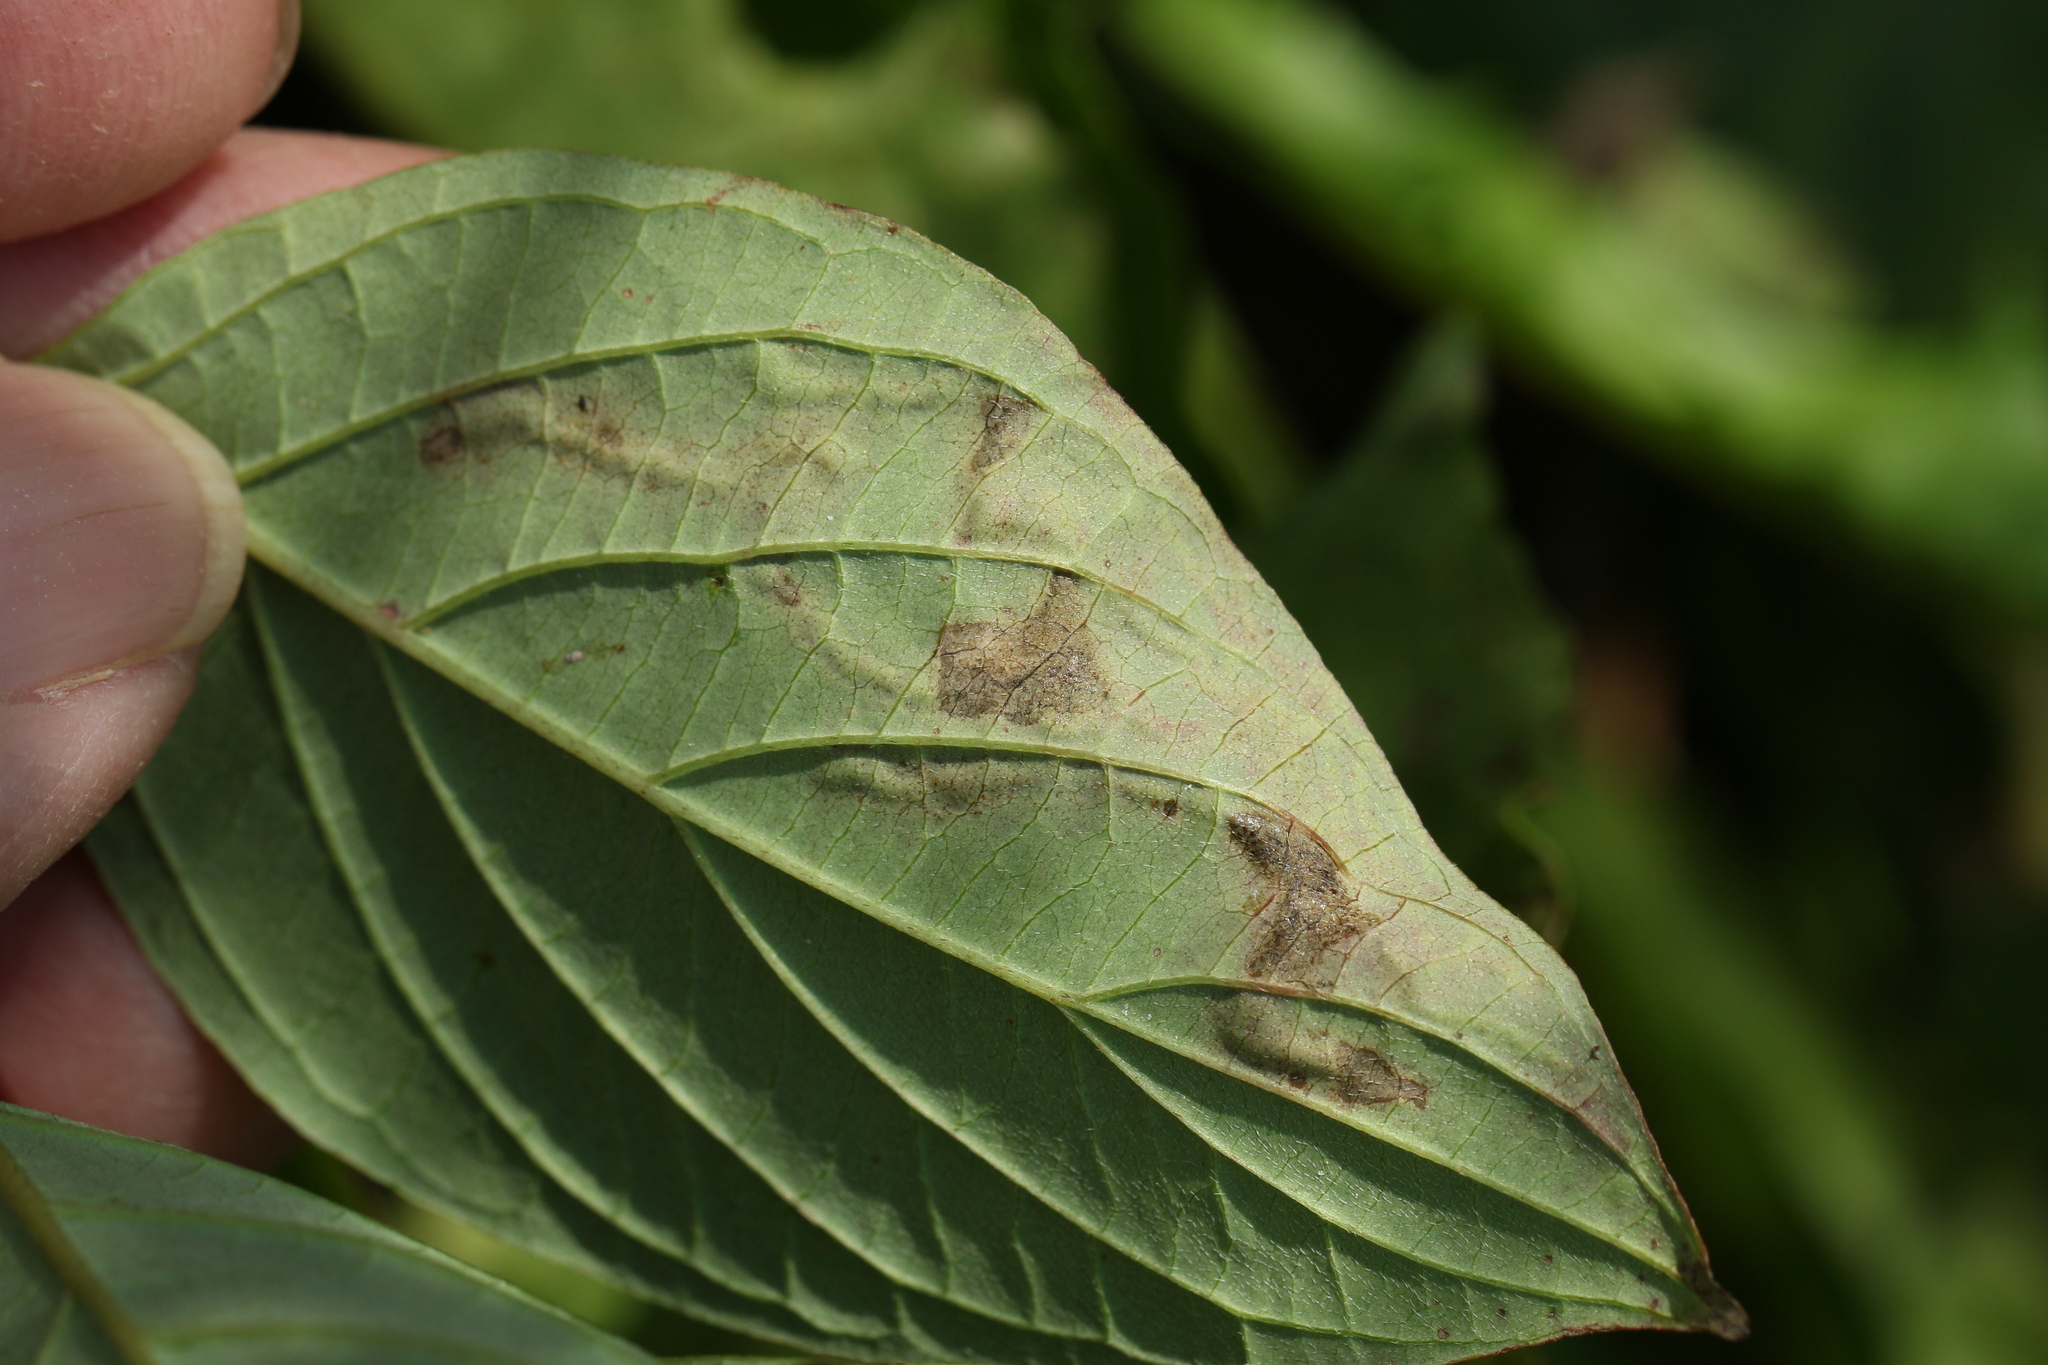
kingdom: Animalia
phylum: Arthropoda
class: Insecta
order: Diptera
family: Agromyzidae
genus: Phytomyza
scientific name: Phytomyza agromyzina
